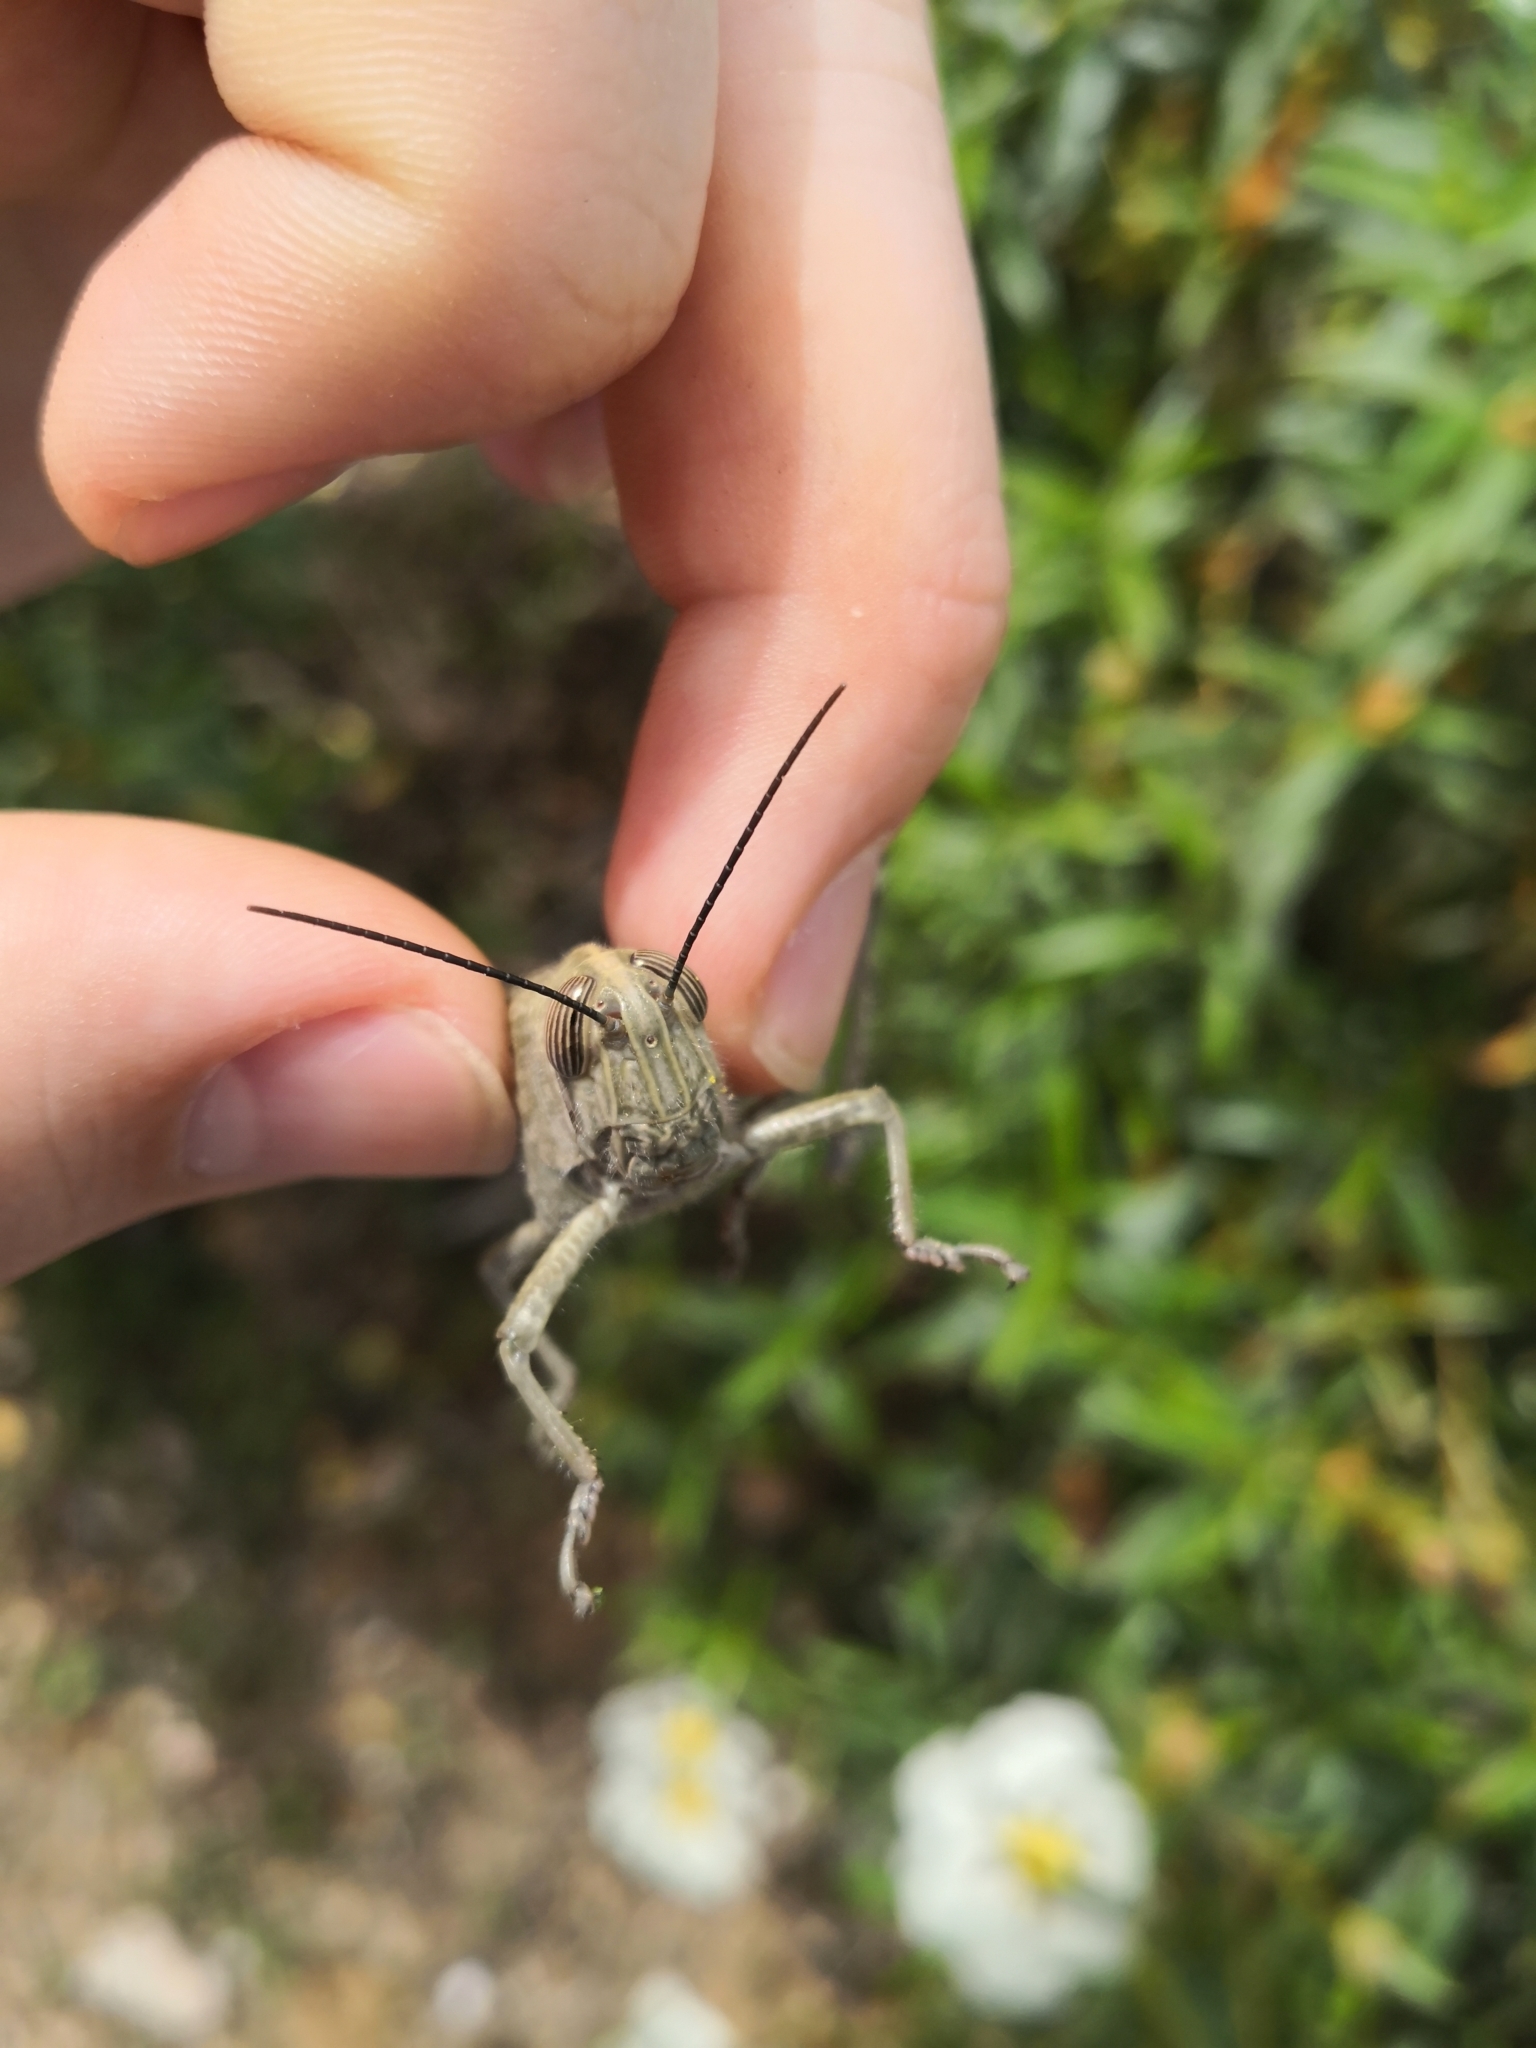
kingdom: Animalia
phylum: Arthropoda
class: Insecta
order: Orthoptera
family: Acrididae
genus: Anacridium
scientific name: Anacridium aegyptium
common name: Egyptian grasshopper
